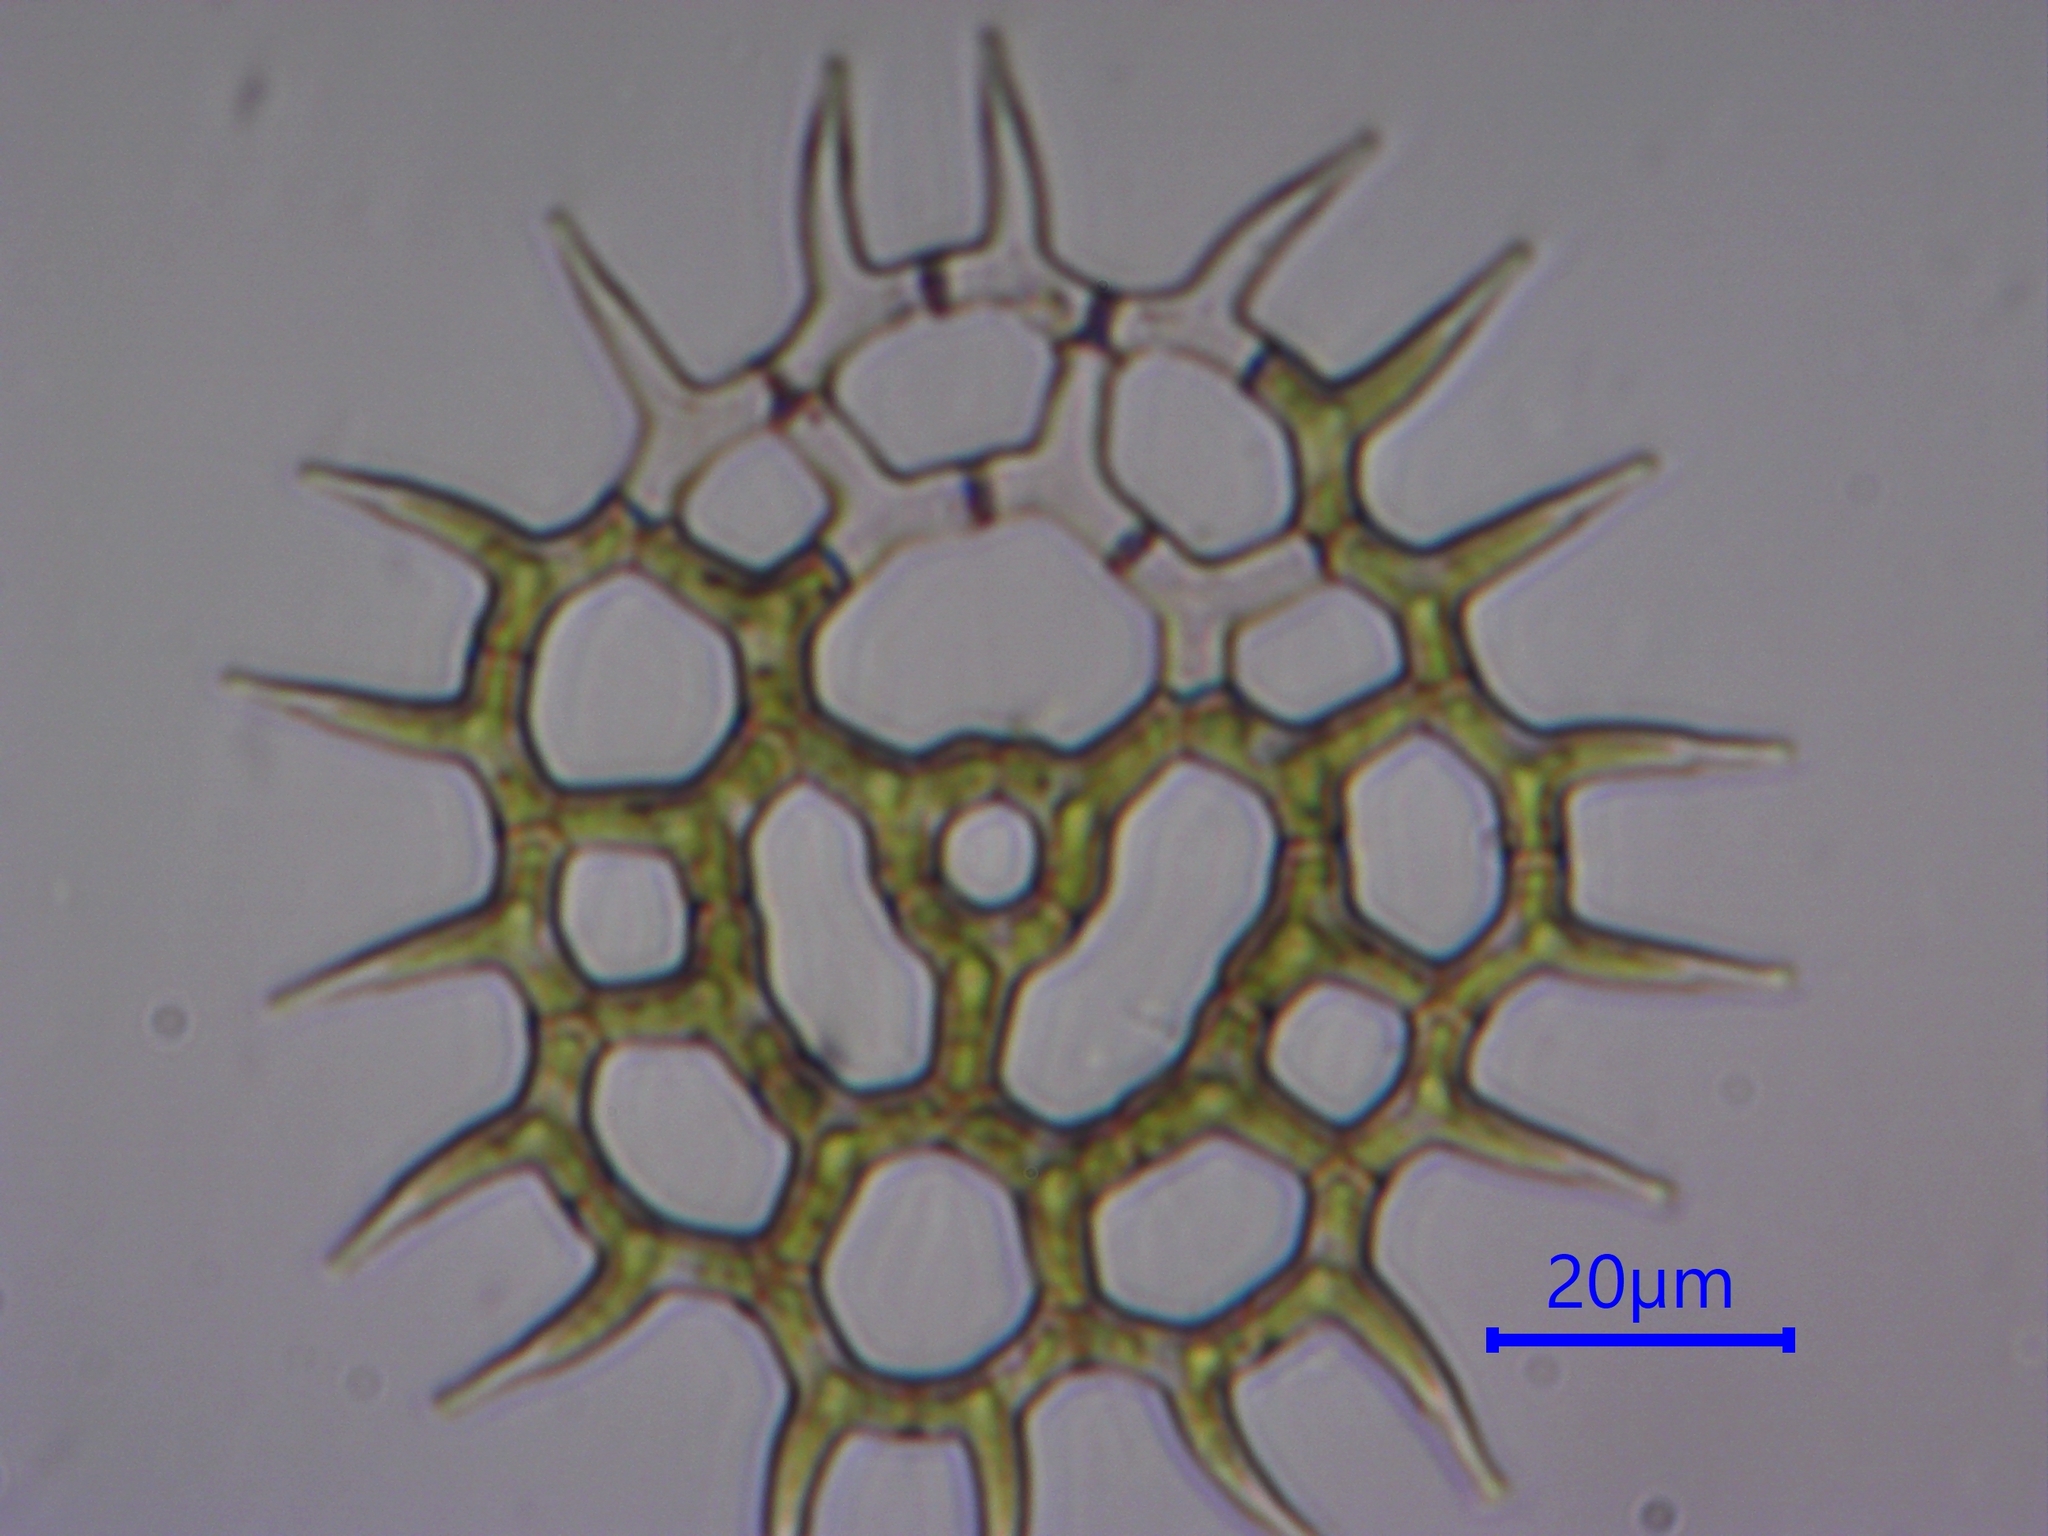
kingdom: Plantae
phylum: Chlorophyta
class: Chlorophyceae
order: Sphaeropleales
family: Hydrodictyaceae
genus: Pediastrum
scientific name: Pediastrum
